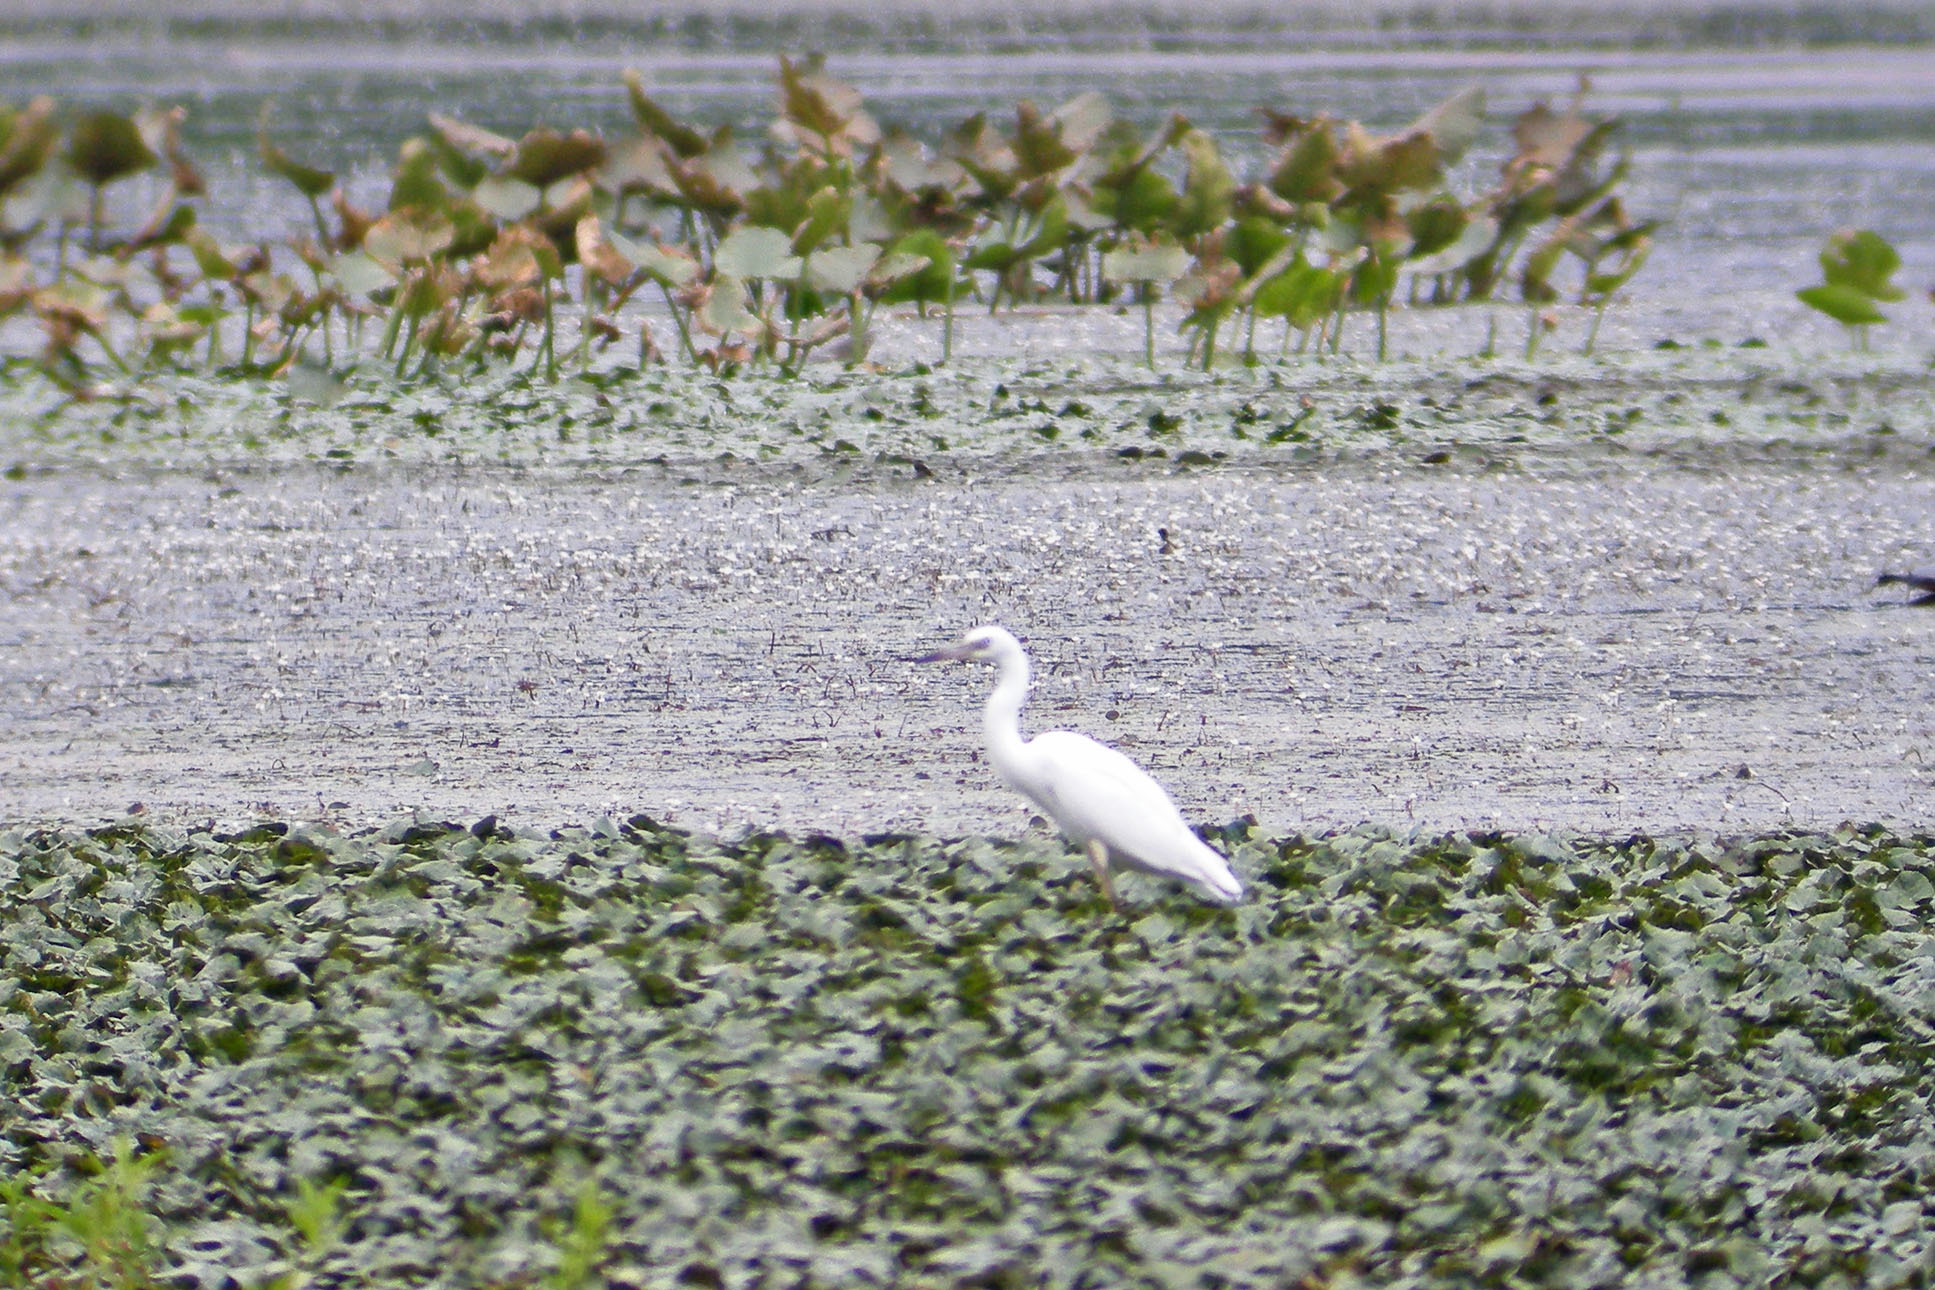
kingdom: Animalia
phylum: Chordata
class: Aves
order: Pelecaniformes
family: Ardeidae
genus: Egretta
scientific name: Egretta caerulea
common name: Little blue heron
